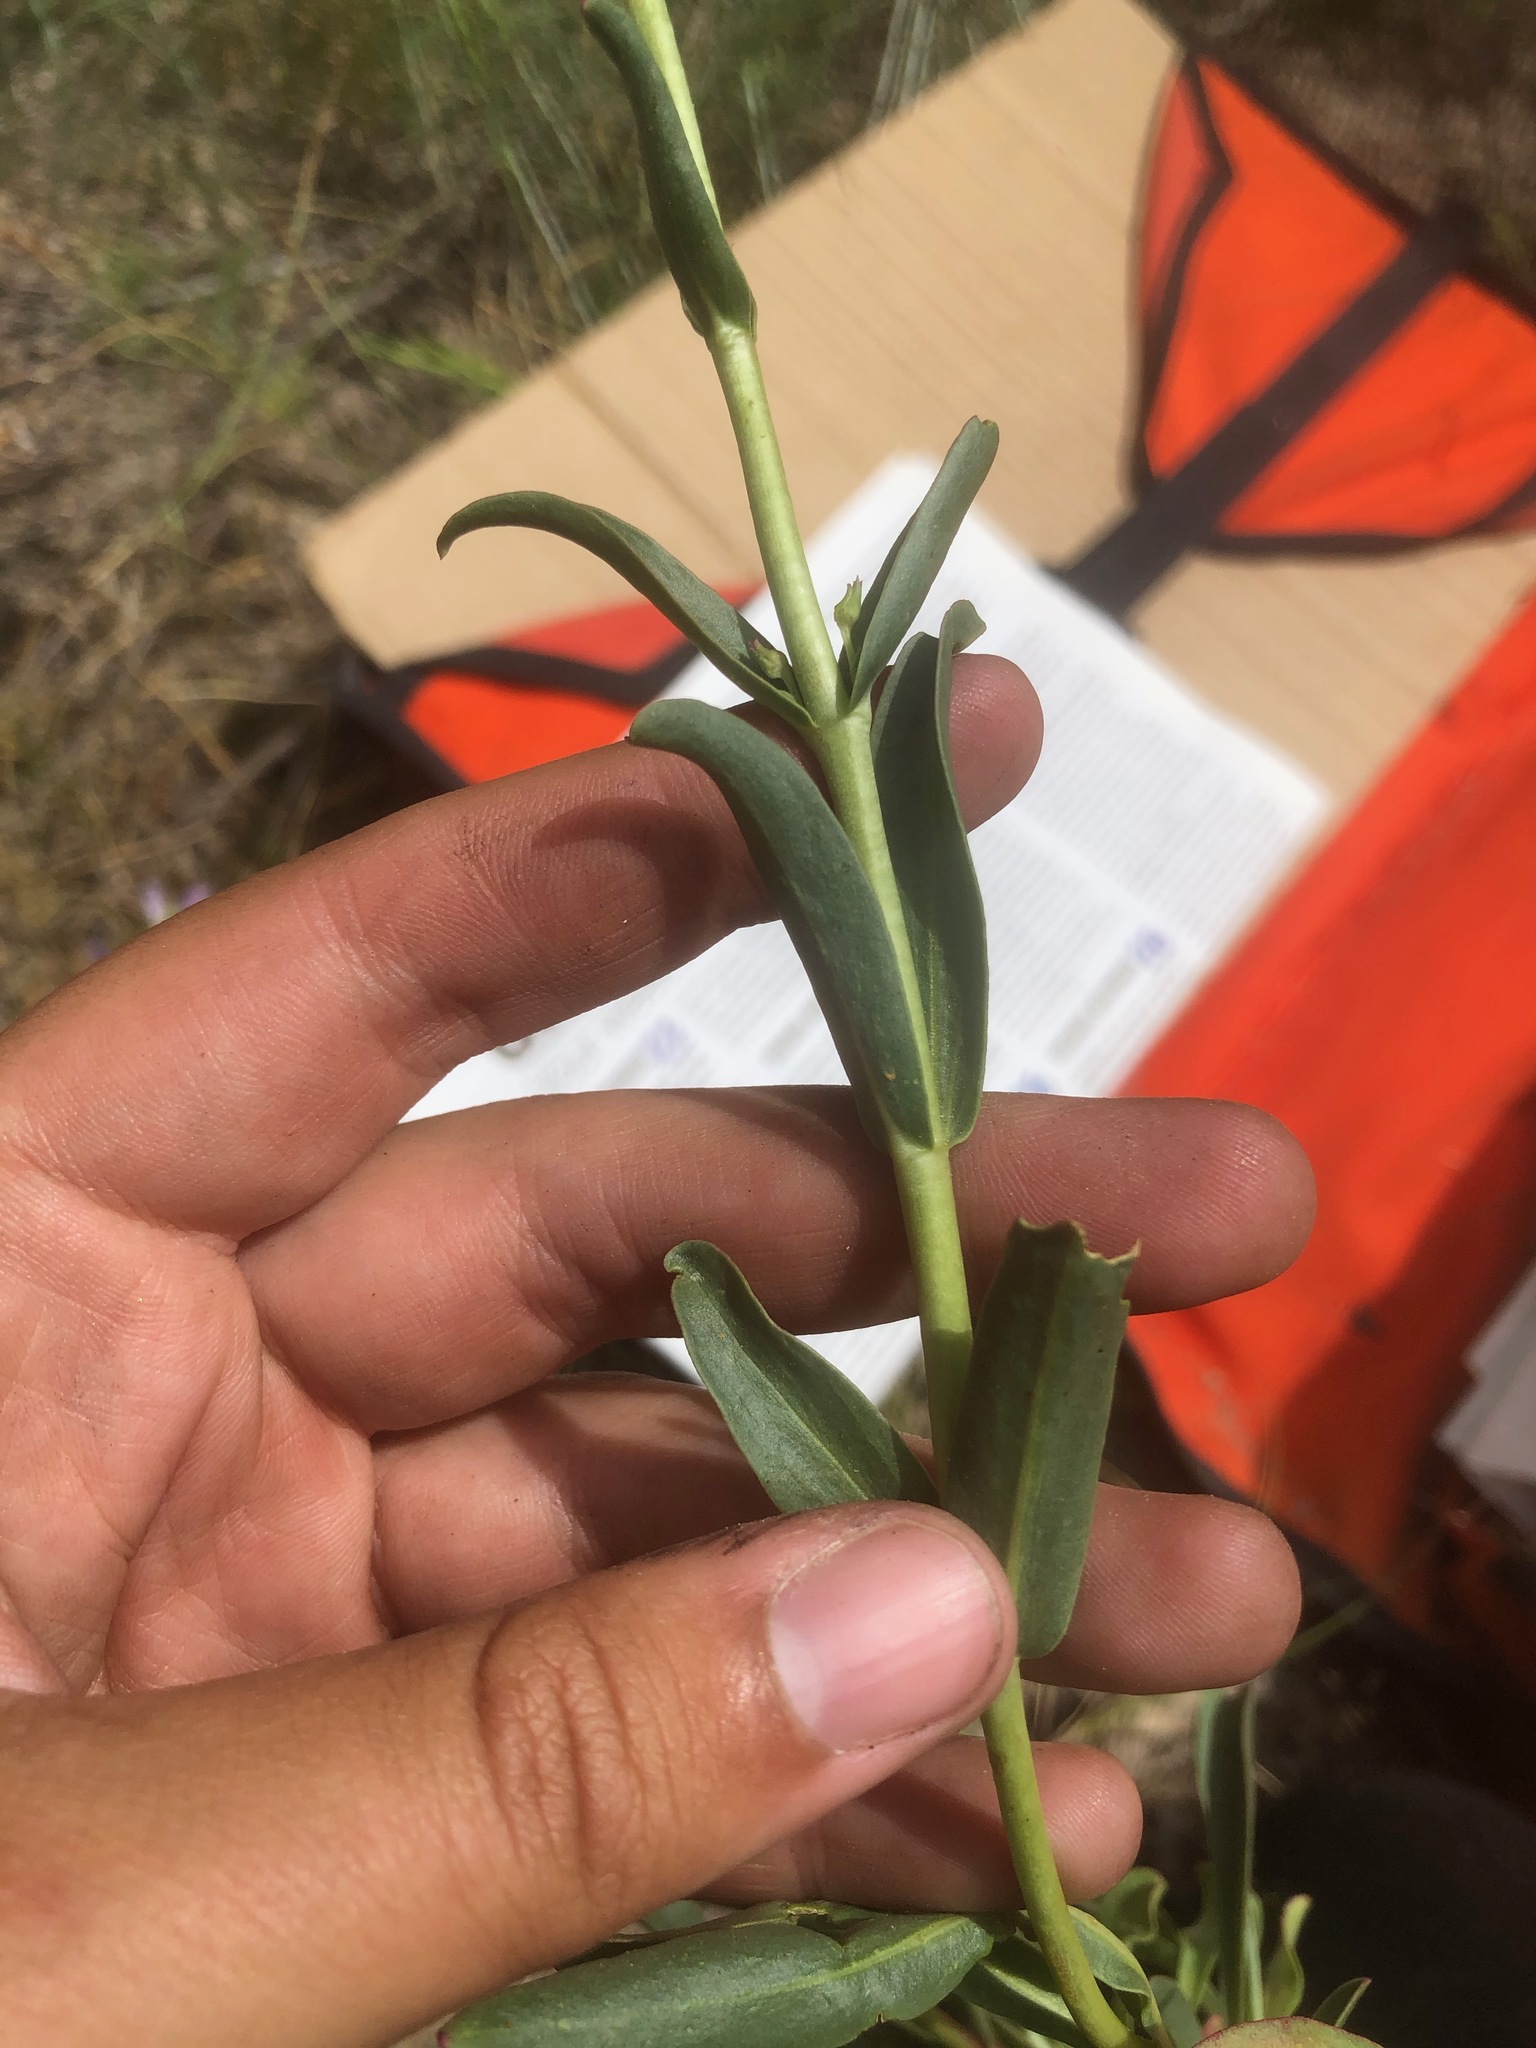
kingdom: Plantae
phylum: Tracheophyta
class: Magnoliopsida
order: Lamiales
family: Plantaginaceae
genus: Penstemon
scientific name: Penstemon speciosus
